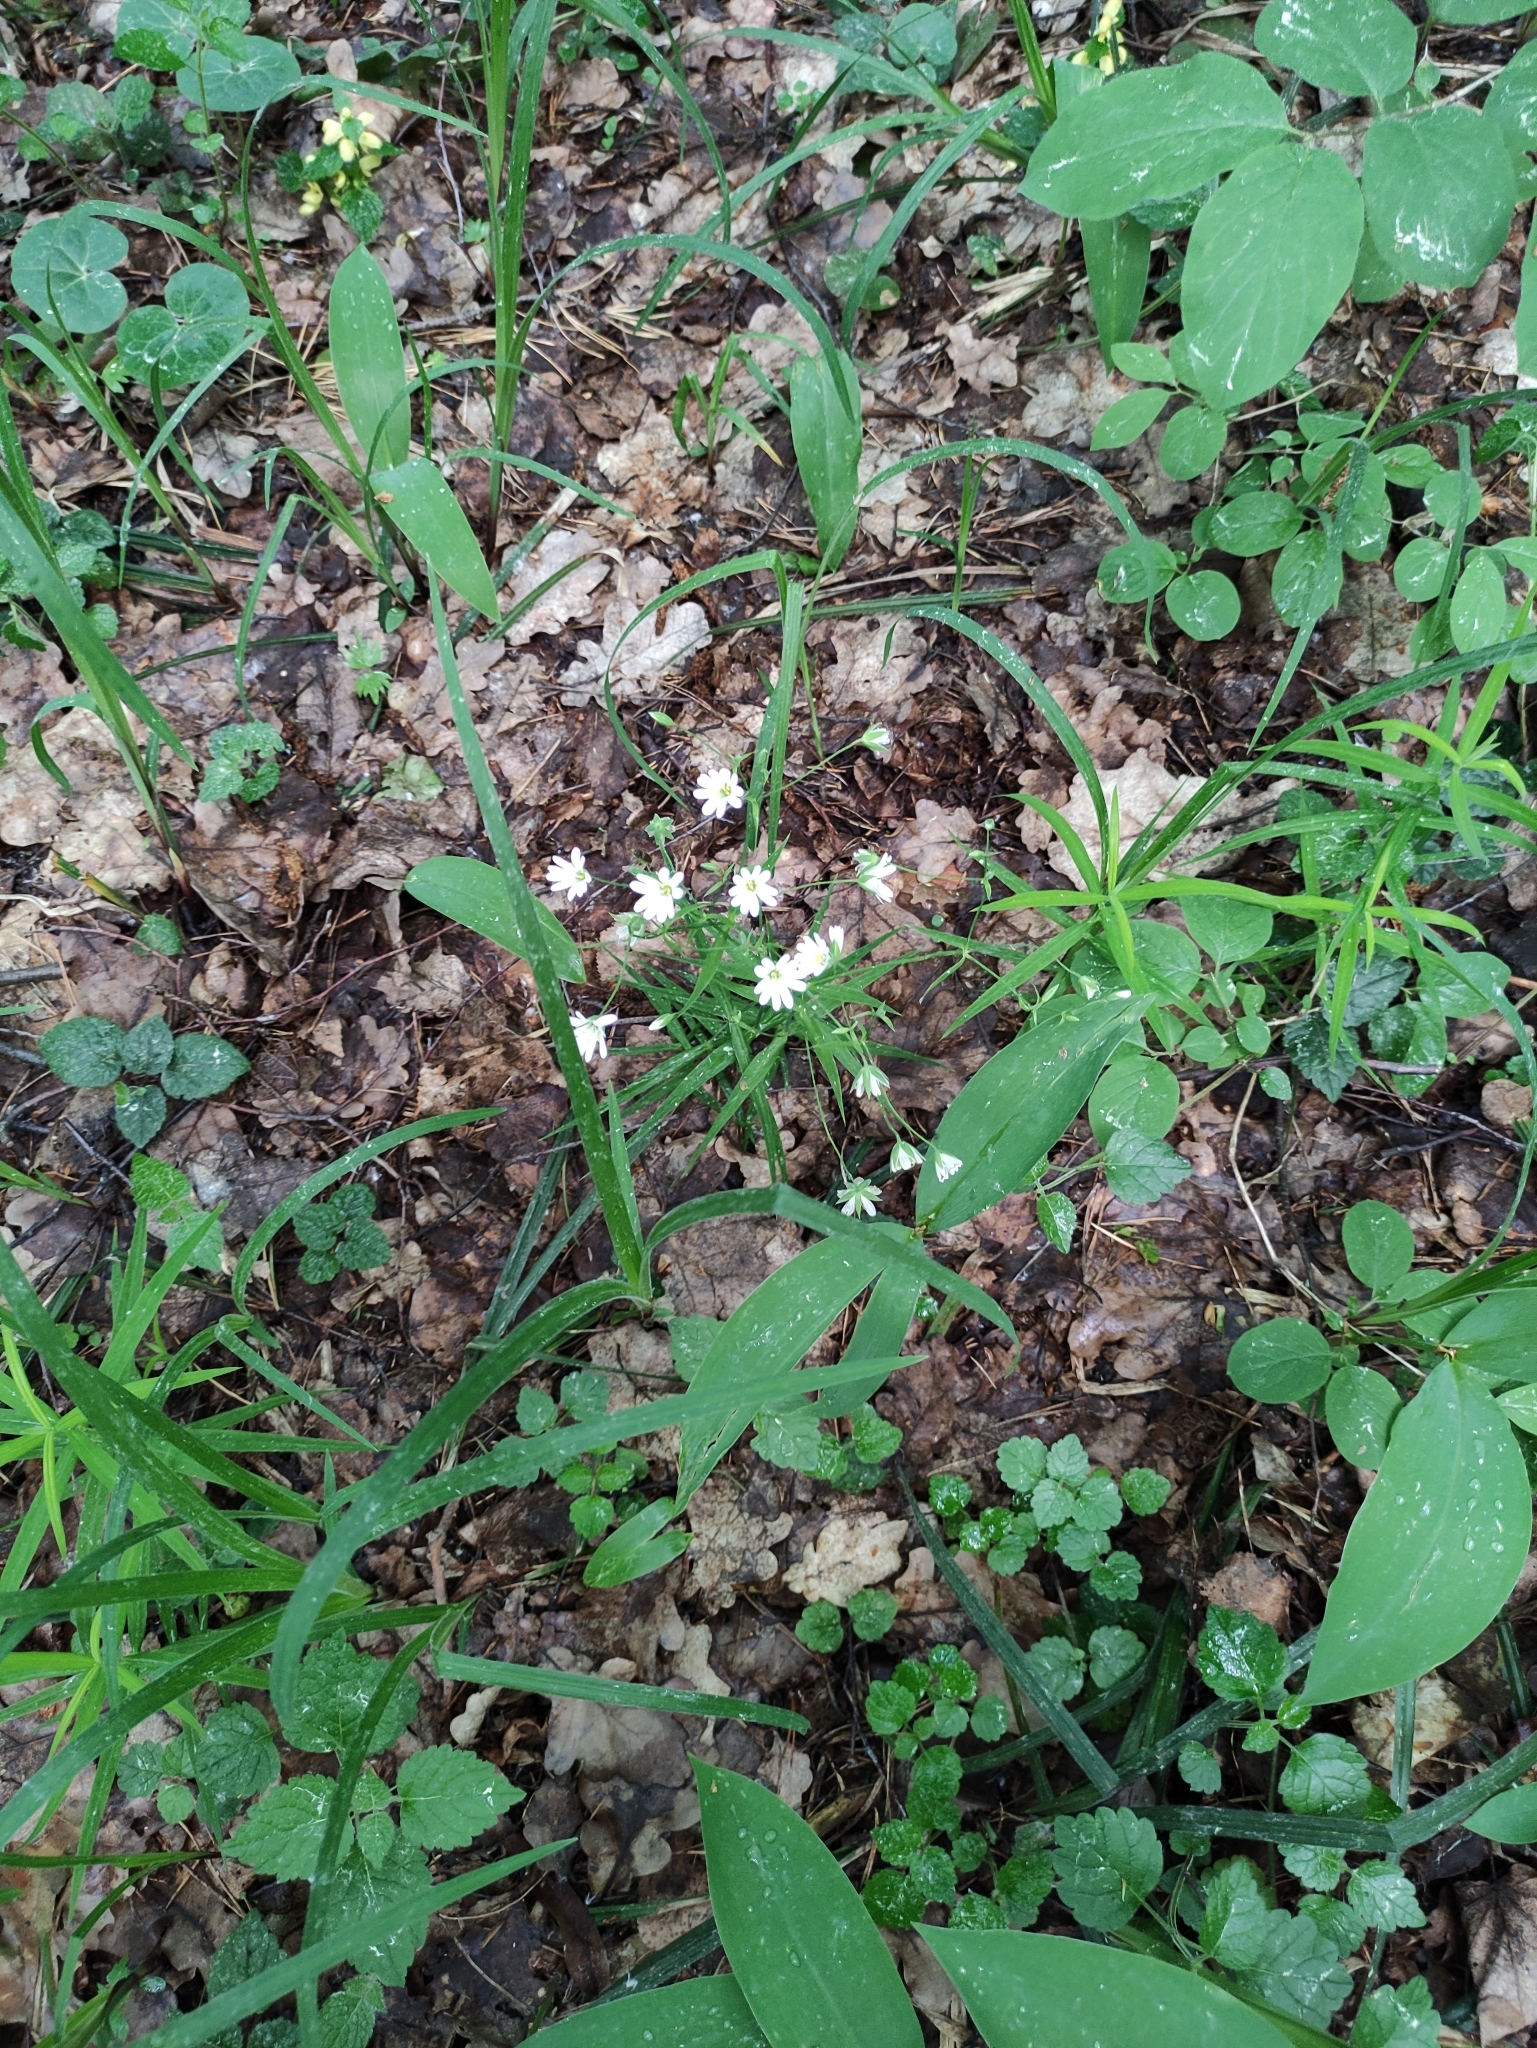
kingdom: Plantae
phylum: Tracheophyta
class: Magnoliopsida
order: Caryophyllales
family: Caryophyllaceae
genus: Rabelera
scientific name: Rabelera holostea
